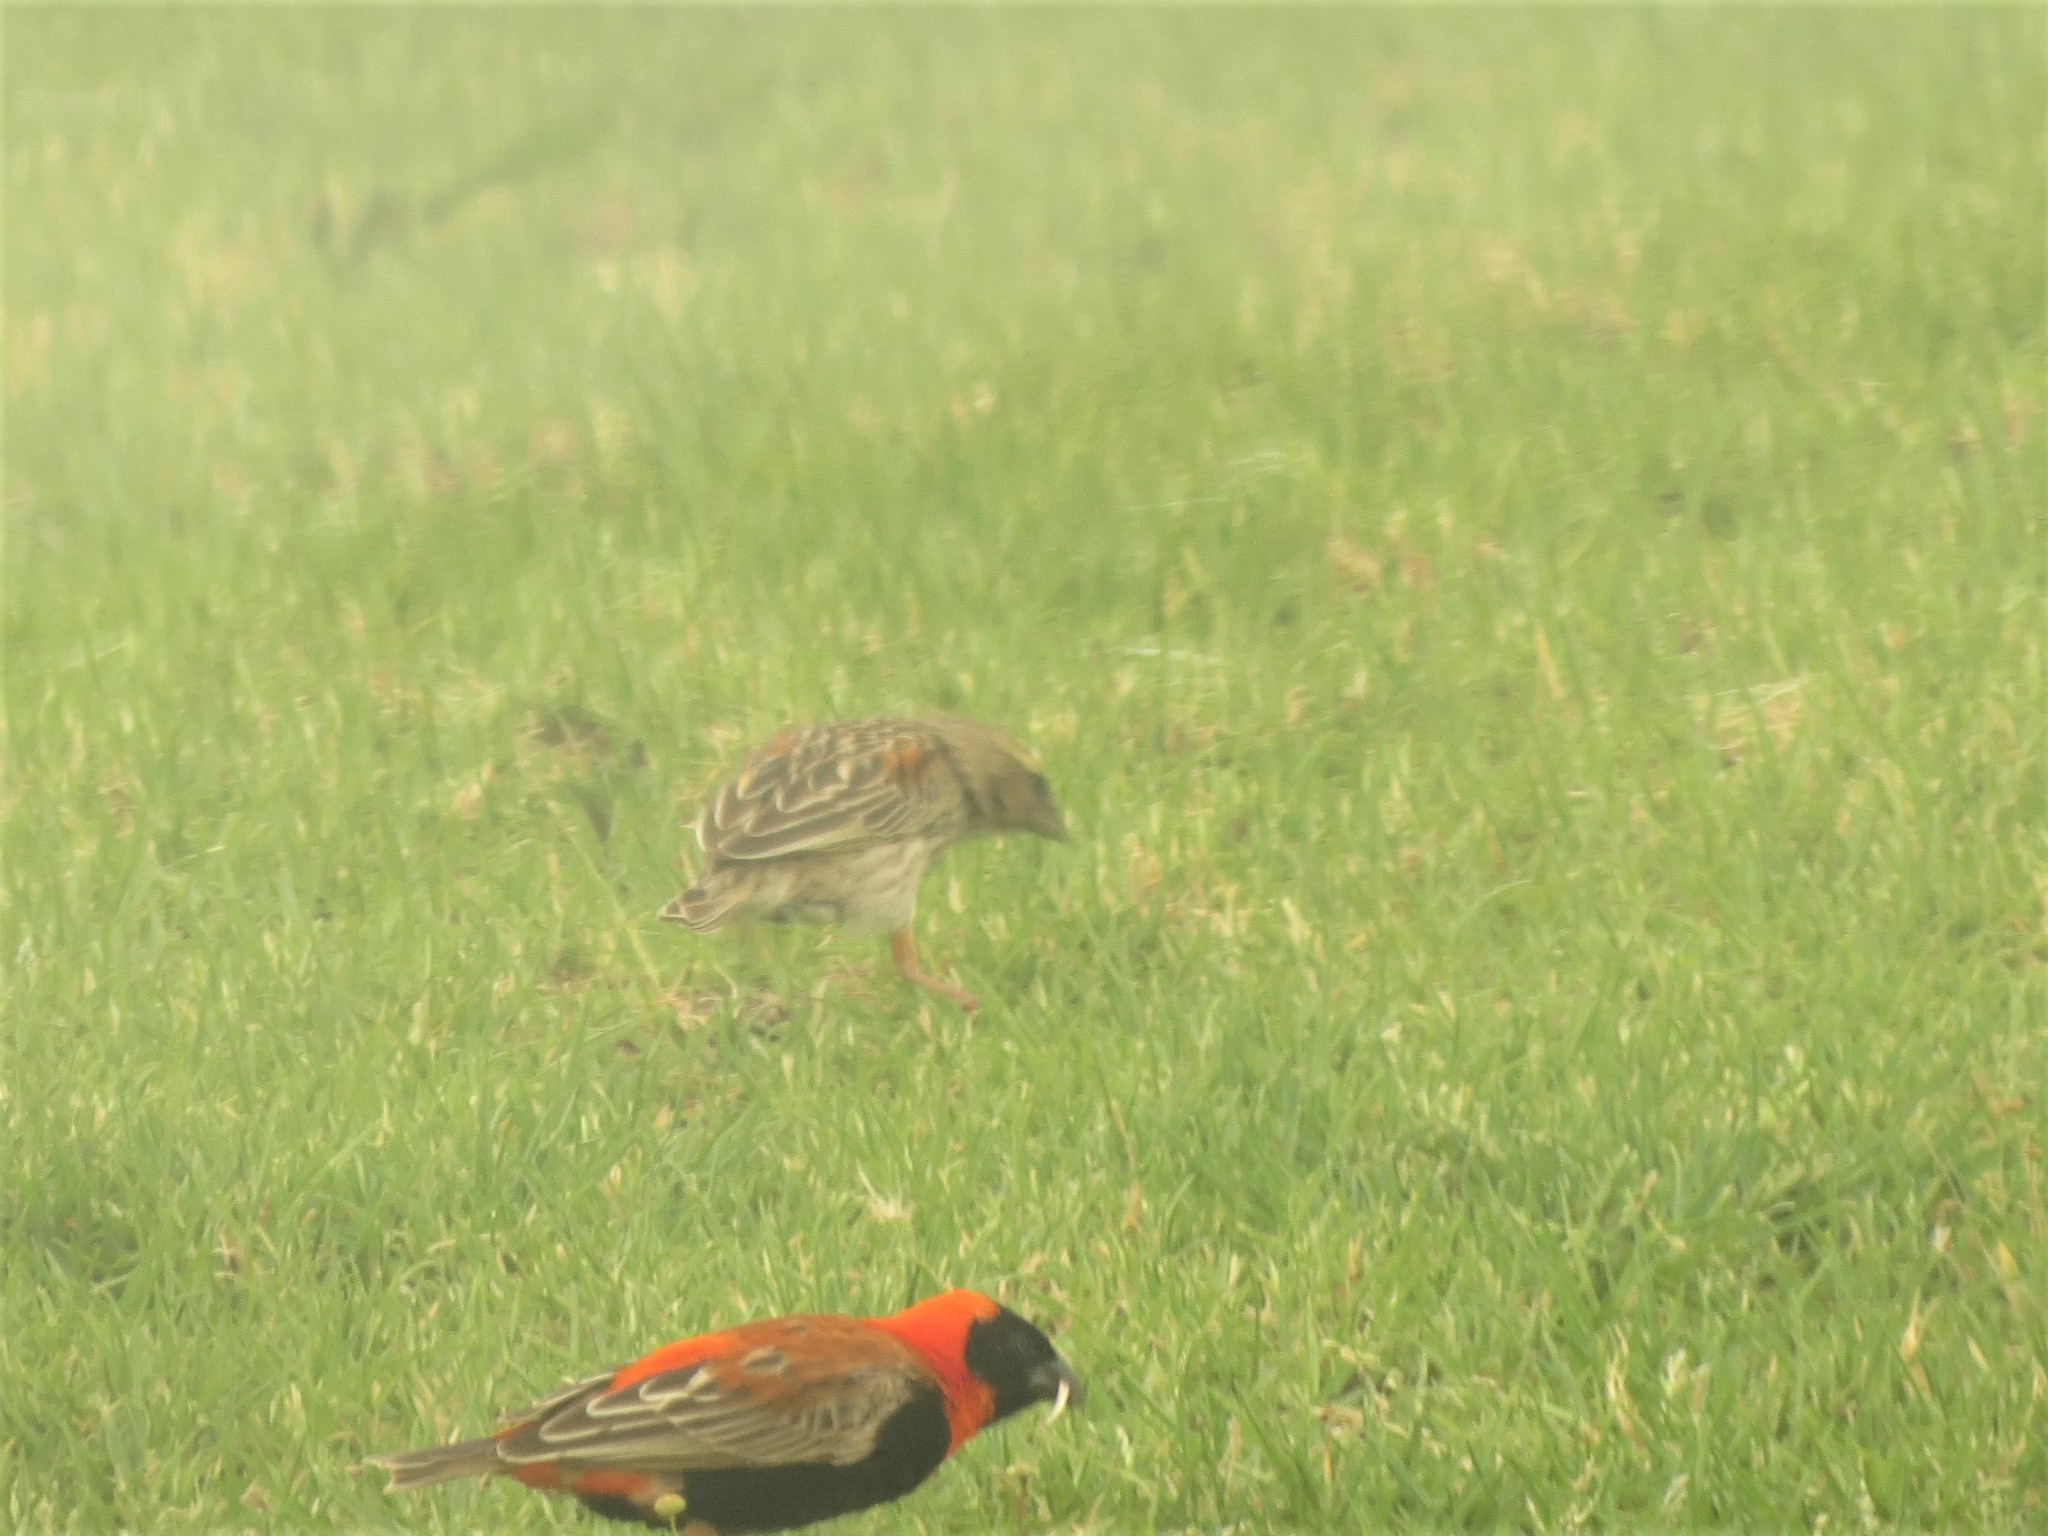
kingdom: Animalia
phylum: Chordata
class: Aves
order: Passeriformes
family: Ploceidae
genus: Euplectes
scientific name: Euplectes orix
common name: Southern red bishop
